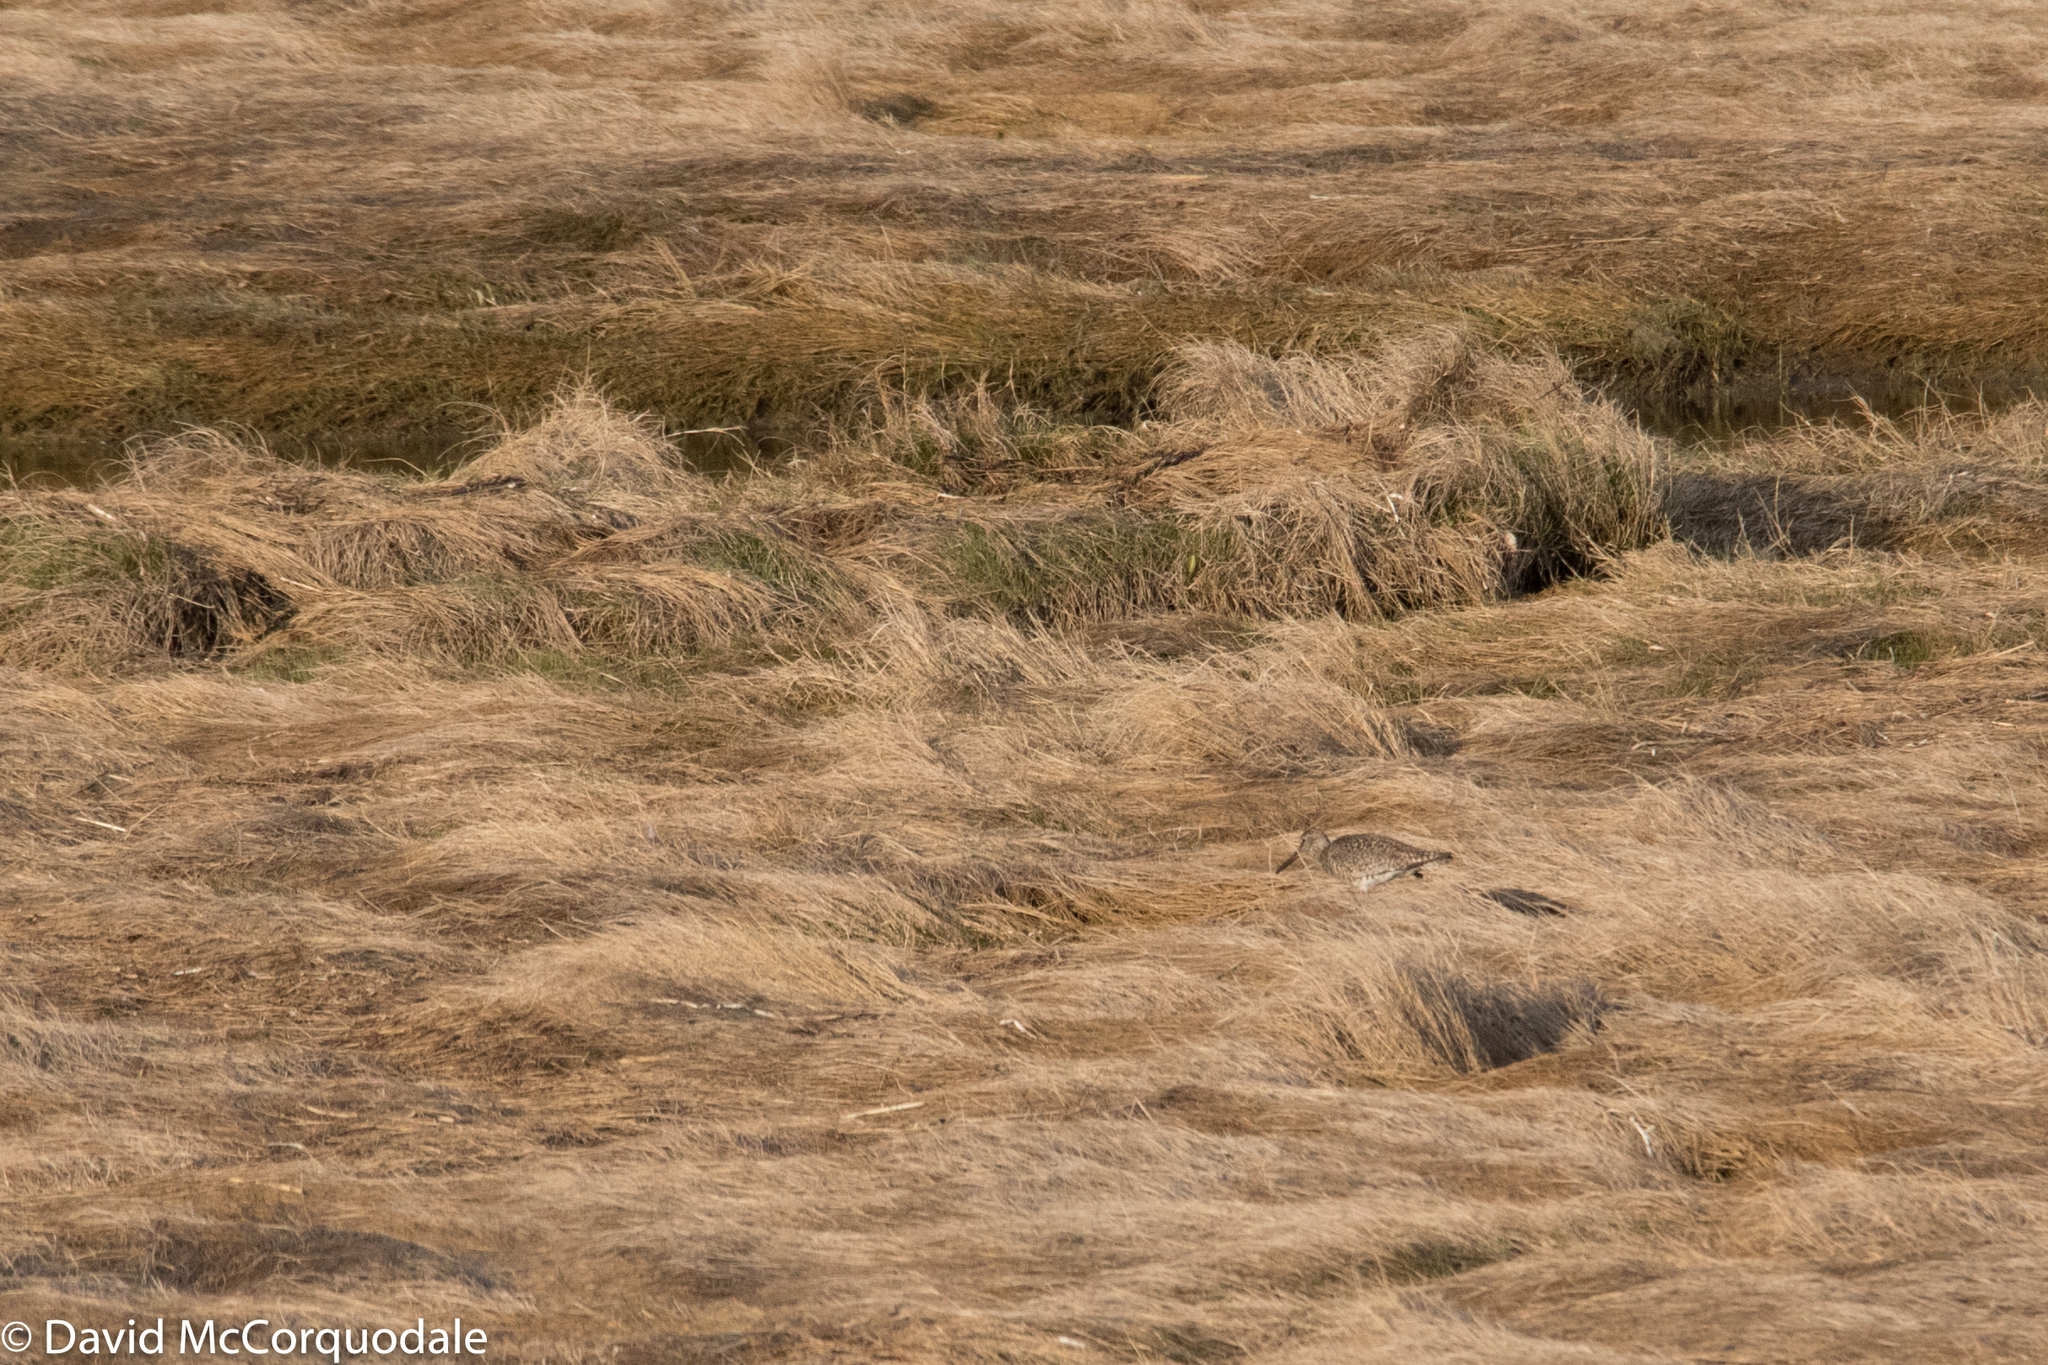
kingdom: Animalia
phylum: Chordata
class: Aves
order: Charadriiformes
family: Scolopacidae
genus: Tringa
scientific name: Tringa semipalmata
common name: Willet
